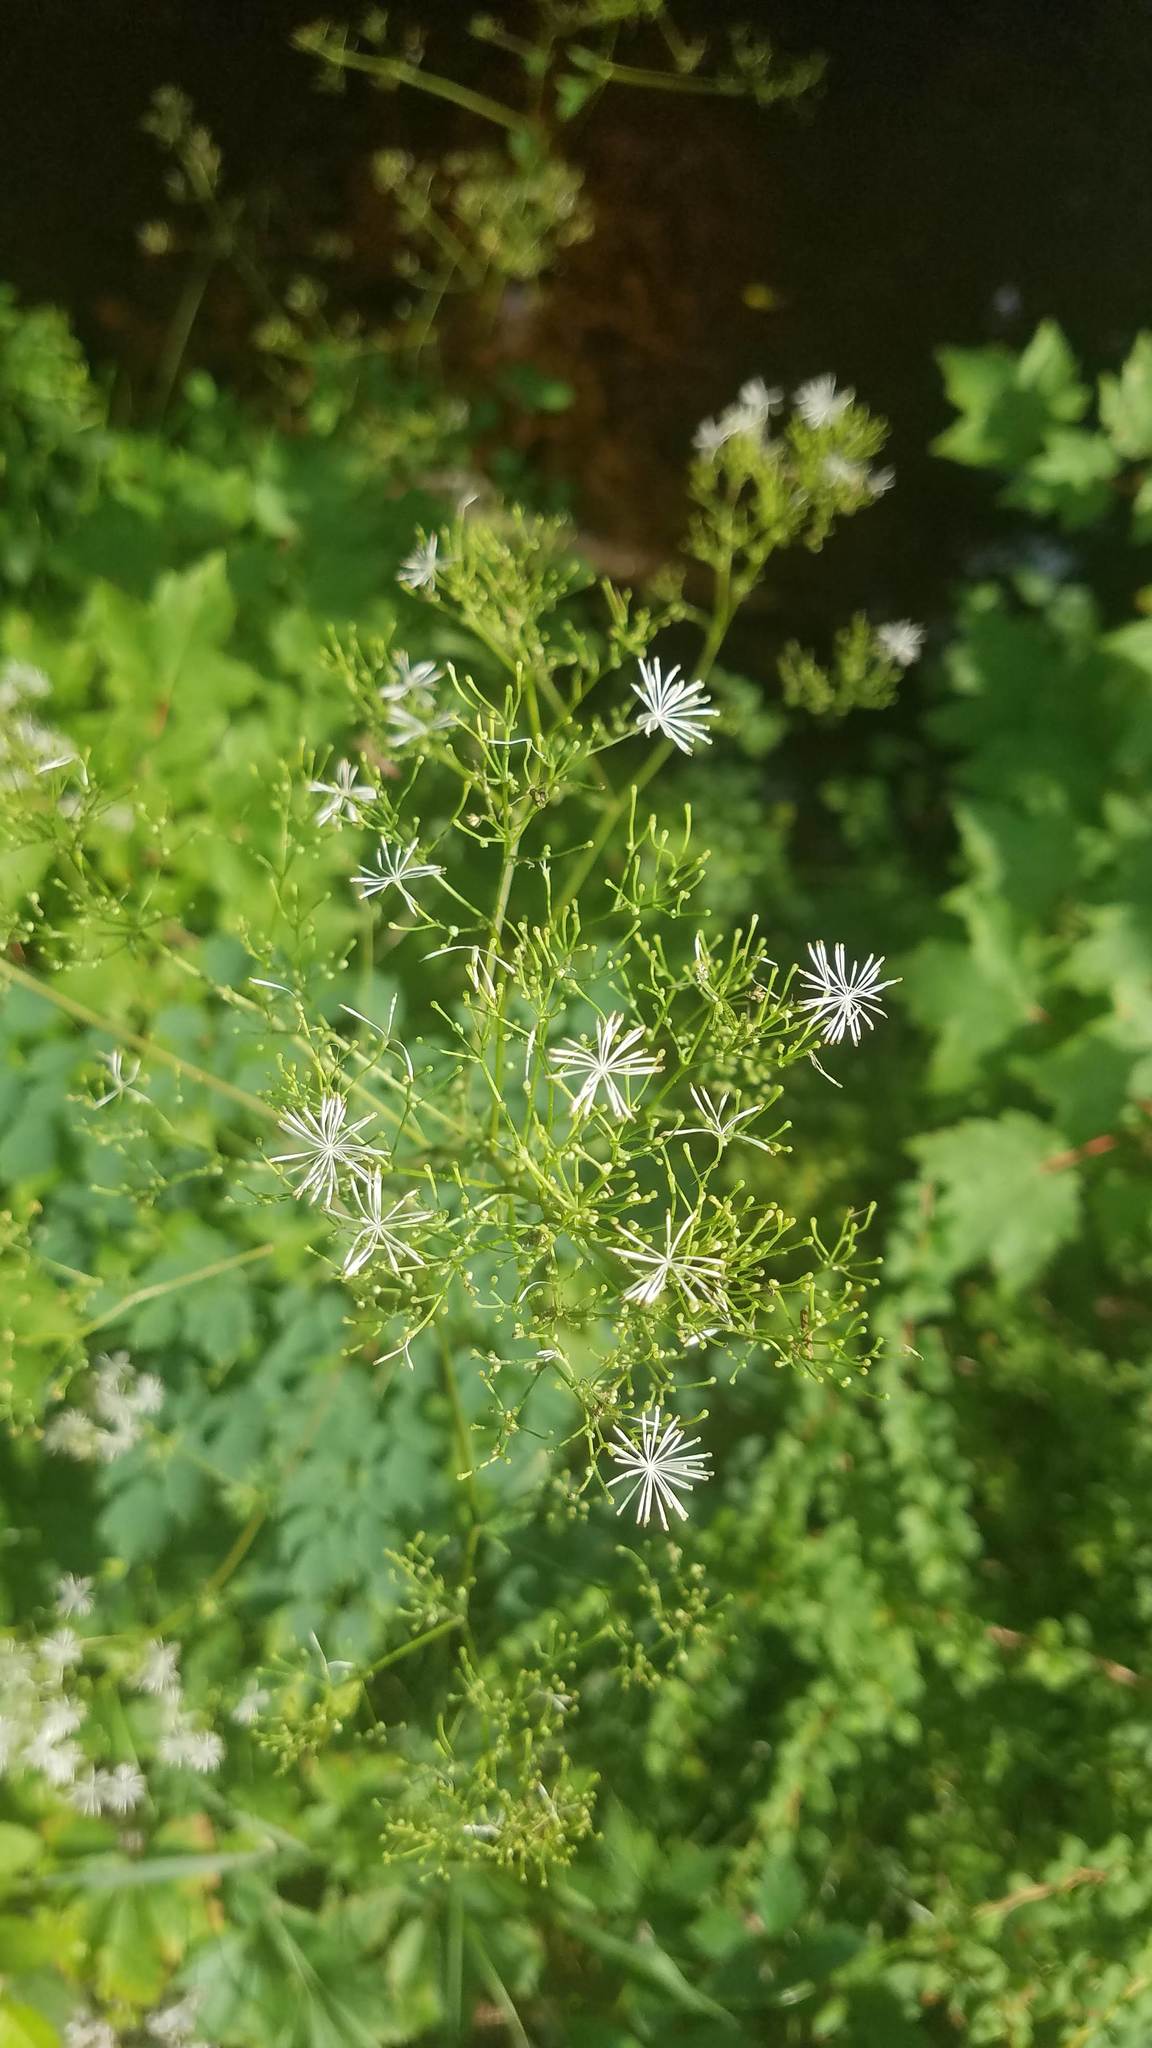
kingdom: Plantae
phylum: Tracheophyta
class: Magnoliopsida
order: Ranunculales
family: Ranunculaceae
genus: Thalictrum
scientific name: Thalictrum pubescens
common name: King-of-the-meadow
